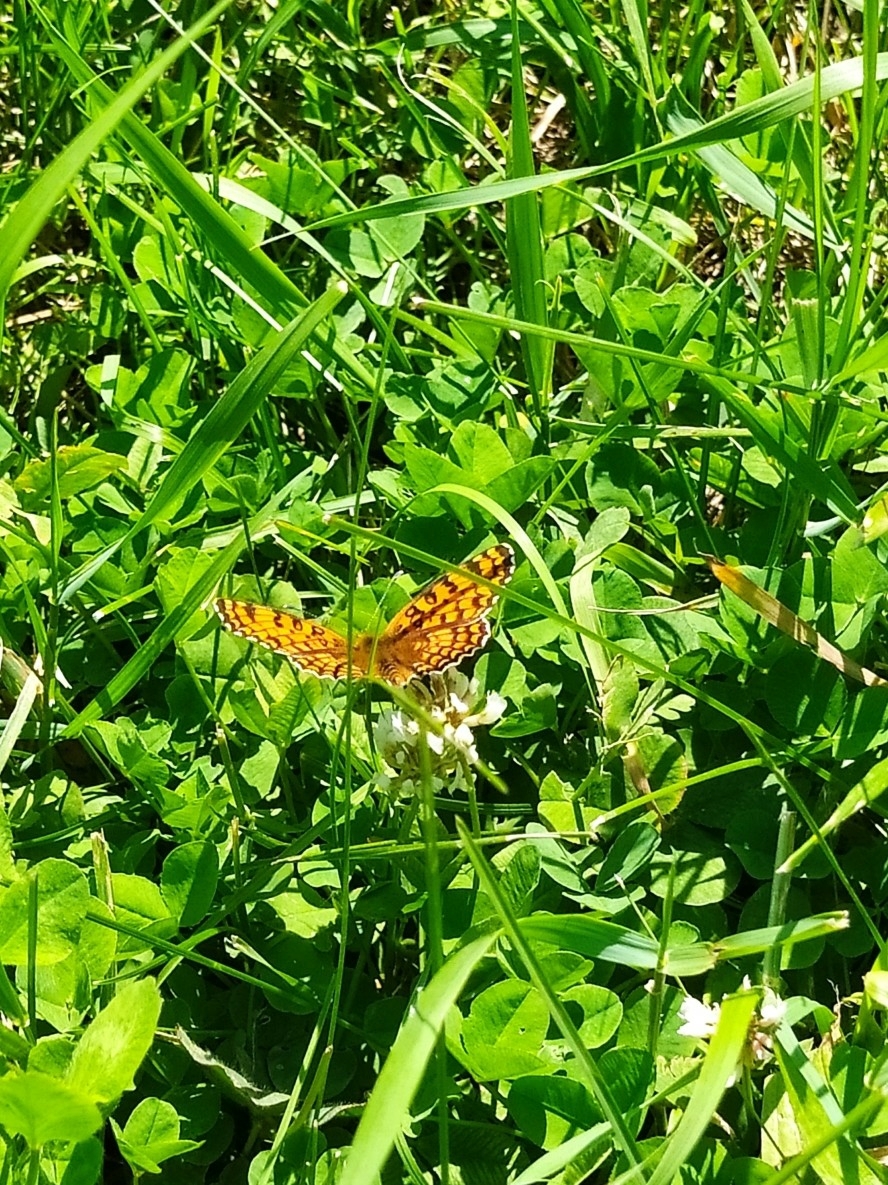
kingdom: Animalia
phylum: Arthropoda
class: Insecta
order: Lepidoptera
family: Nymphalidae
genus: Melitaea
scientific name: Melitaea phoebe
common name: Knapweed fritillary
